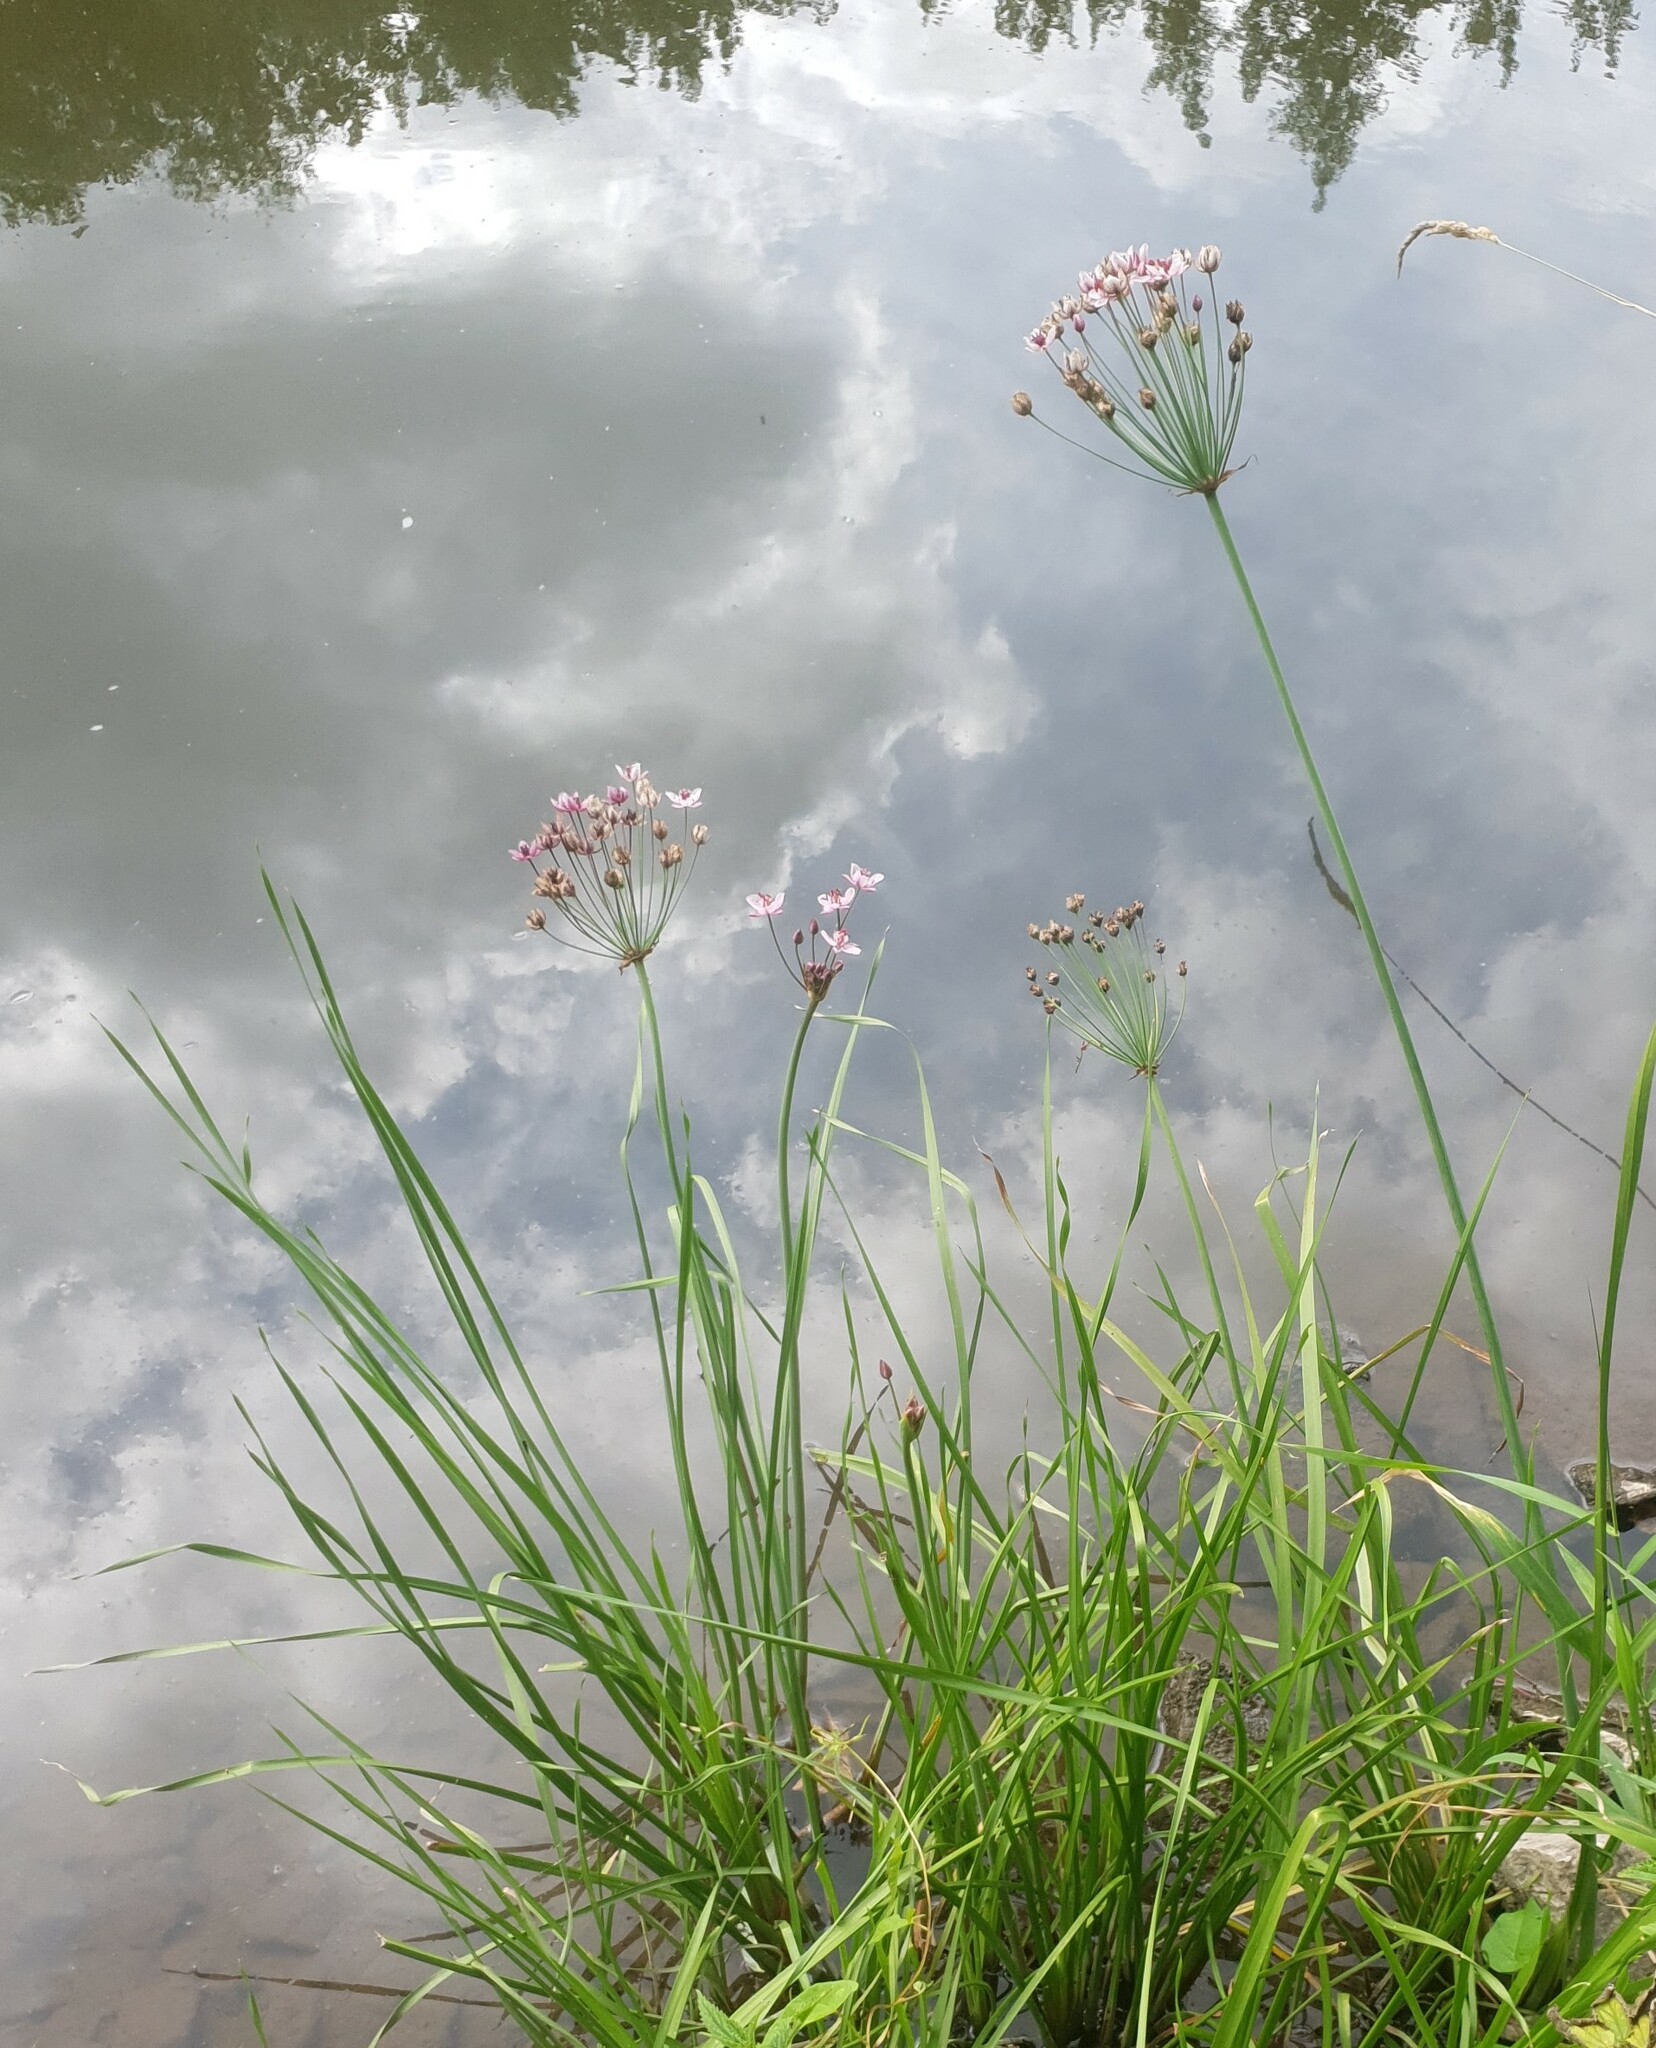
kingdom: Plantae
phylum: Tracheophyta
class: Liliopsida
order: Alismatales
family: Butomaceae
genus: Butomus
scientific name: Butomus umbellatus
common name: Flowering-rush
